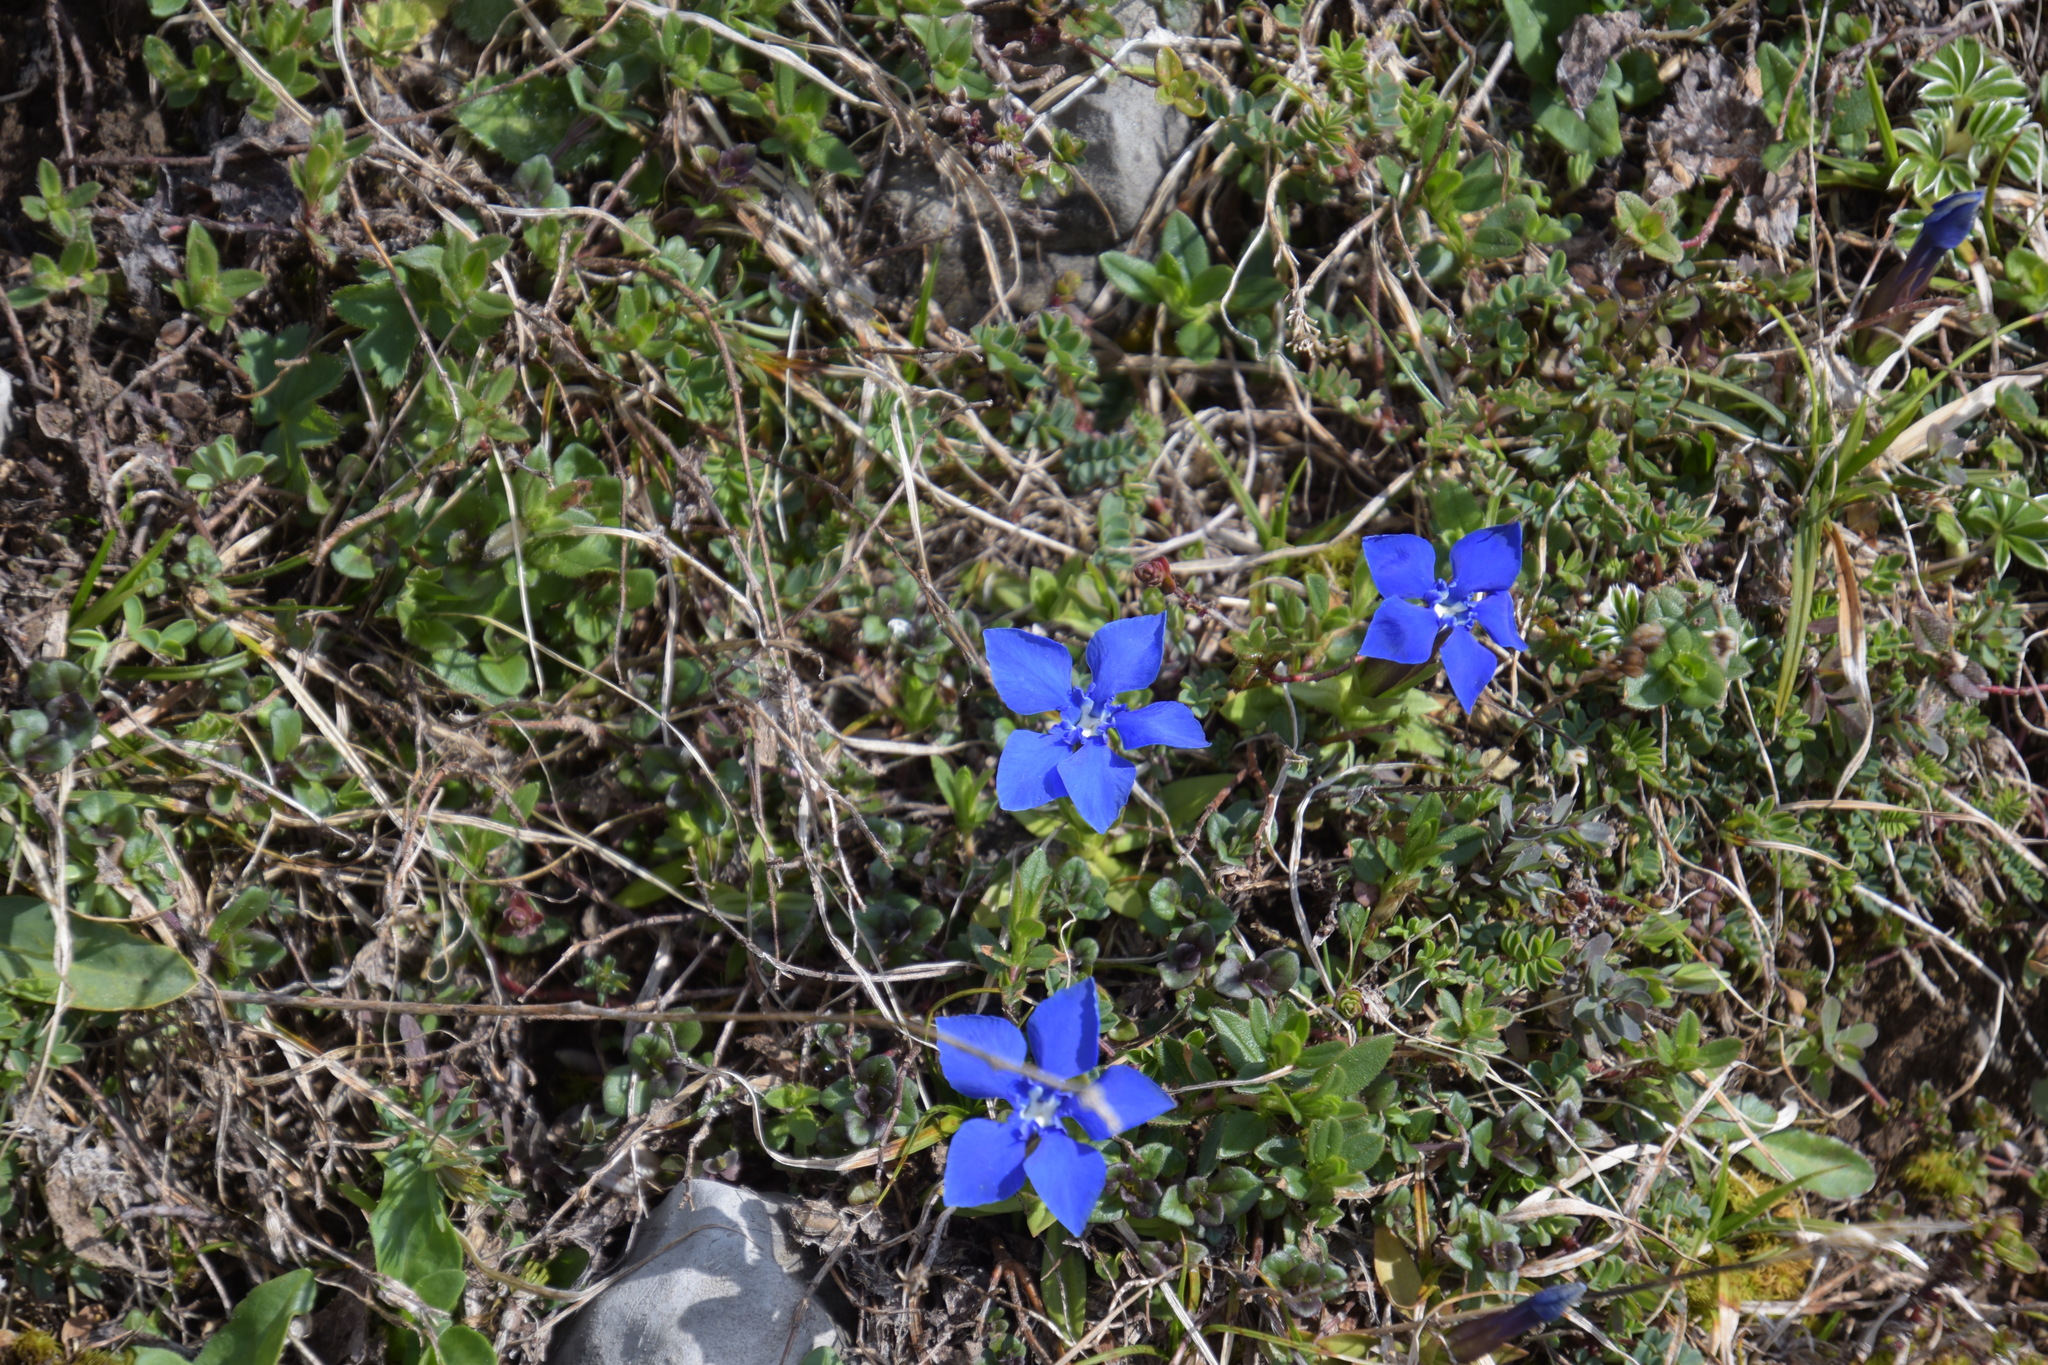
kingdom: Plantae
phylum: Tracheophyta
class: Magnoliopsida
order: Gentianales
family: Gentianaceae
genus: Gentiana
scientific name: Gentiana verna
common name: Spring gentian
